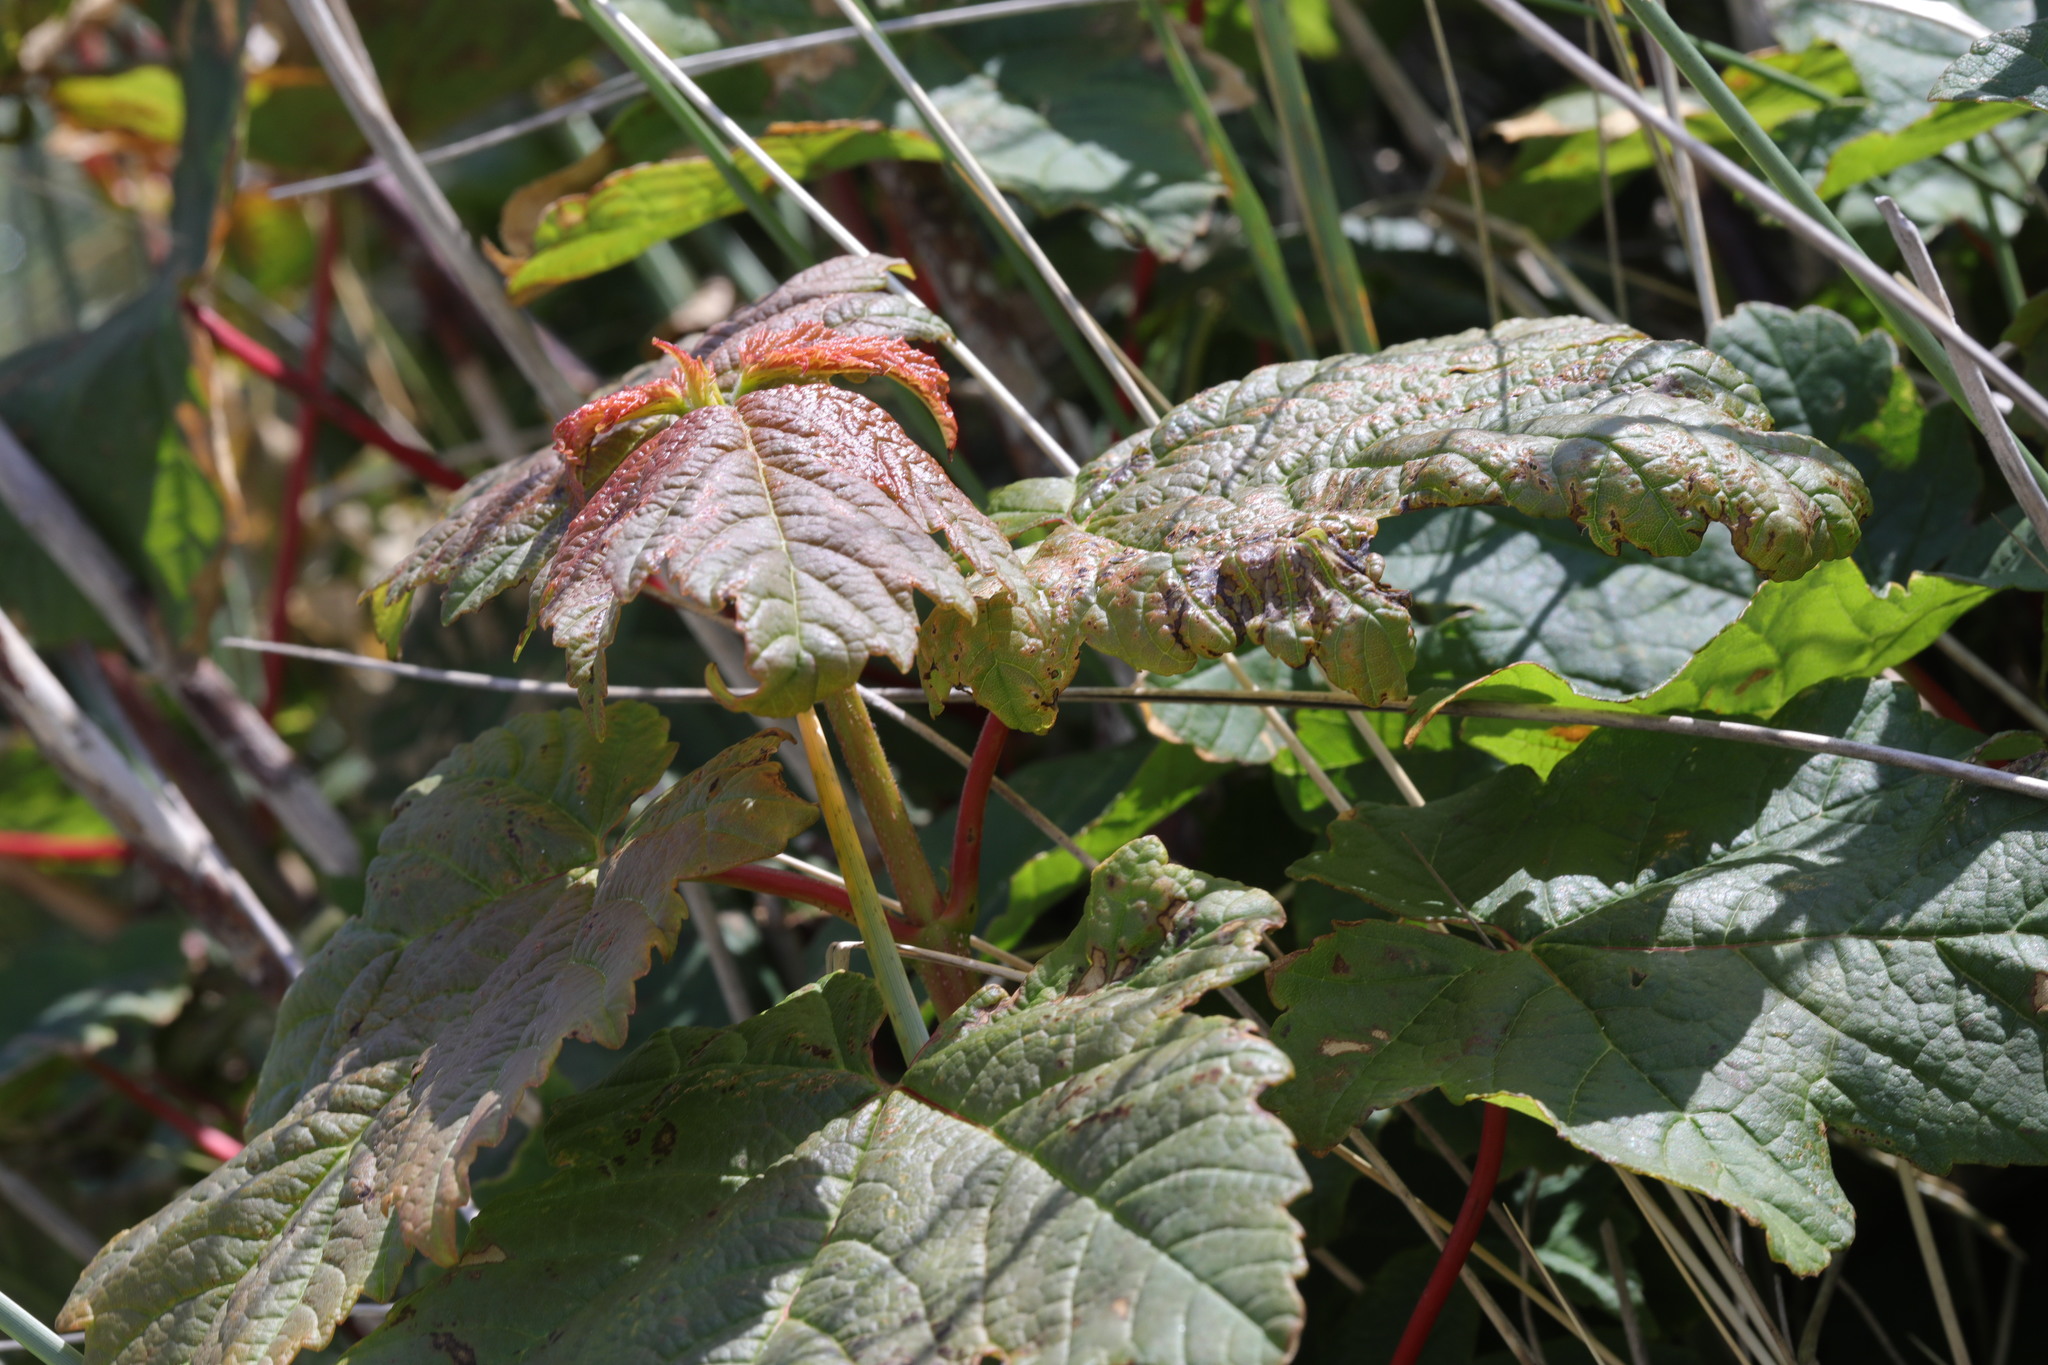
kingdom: Plantae
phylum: Tracheophyta
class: Magnoliopsida
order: Sapindales
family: Sapindaceae
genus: Acer
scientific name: Acer pseudoplatanus
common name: Sycamore
